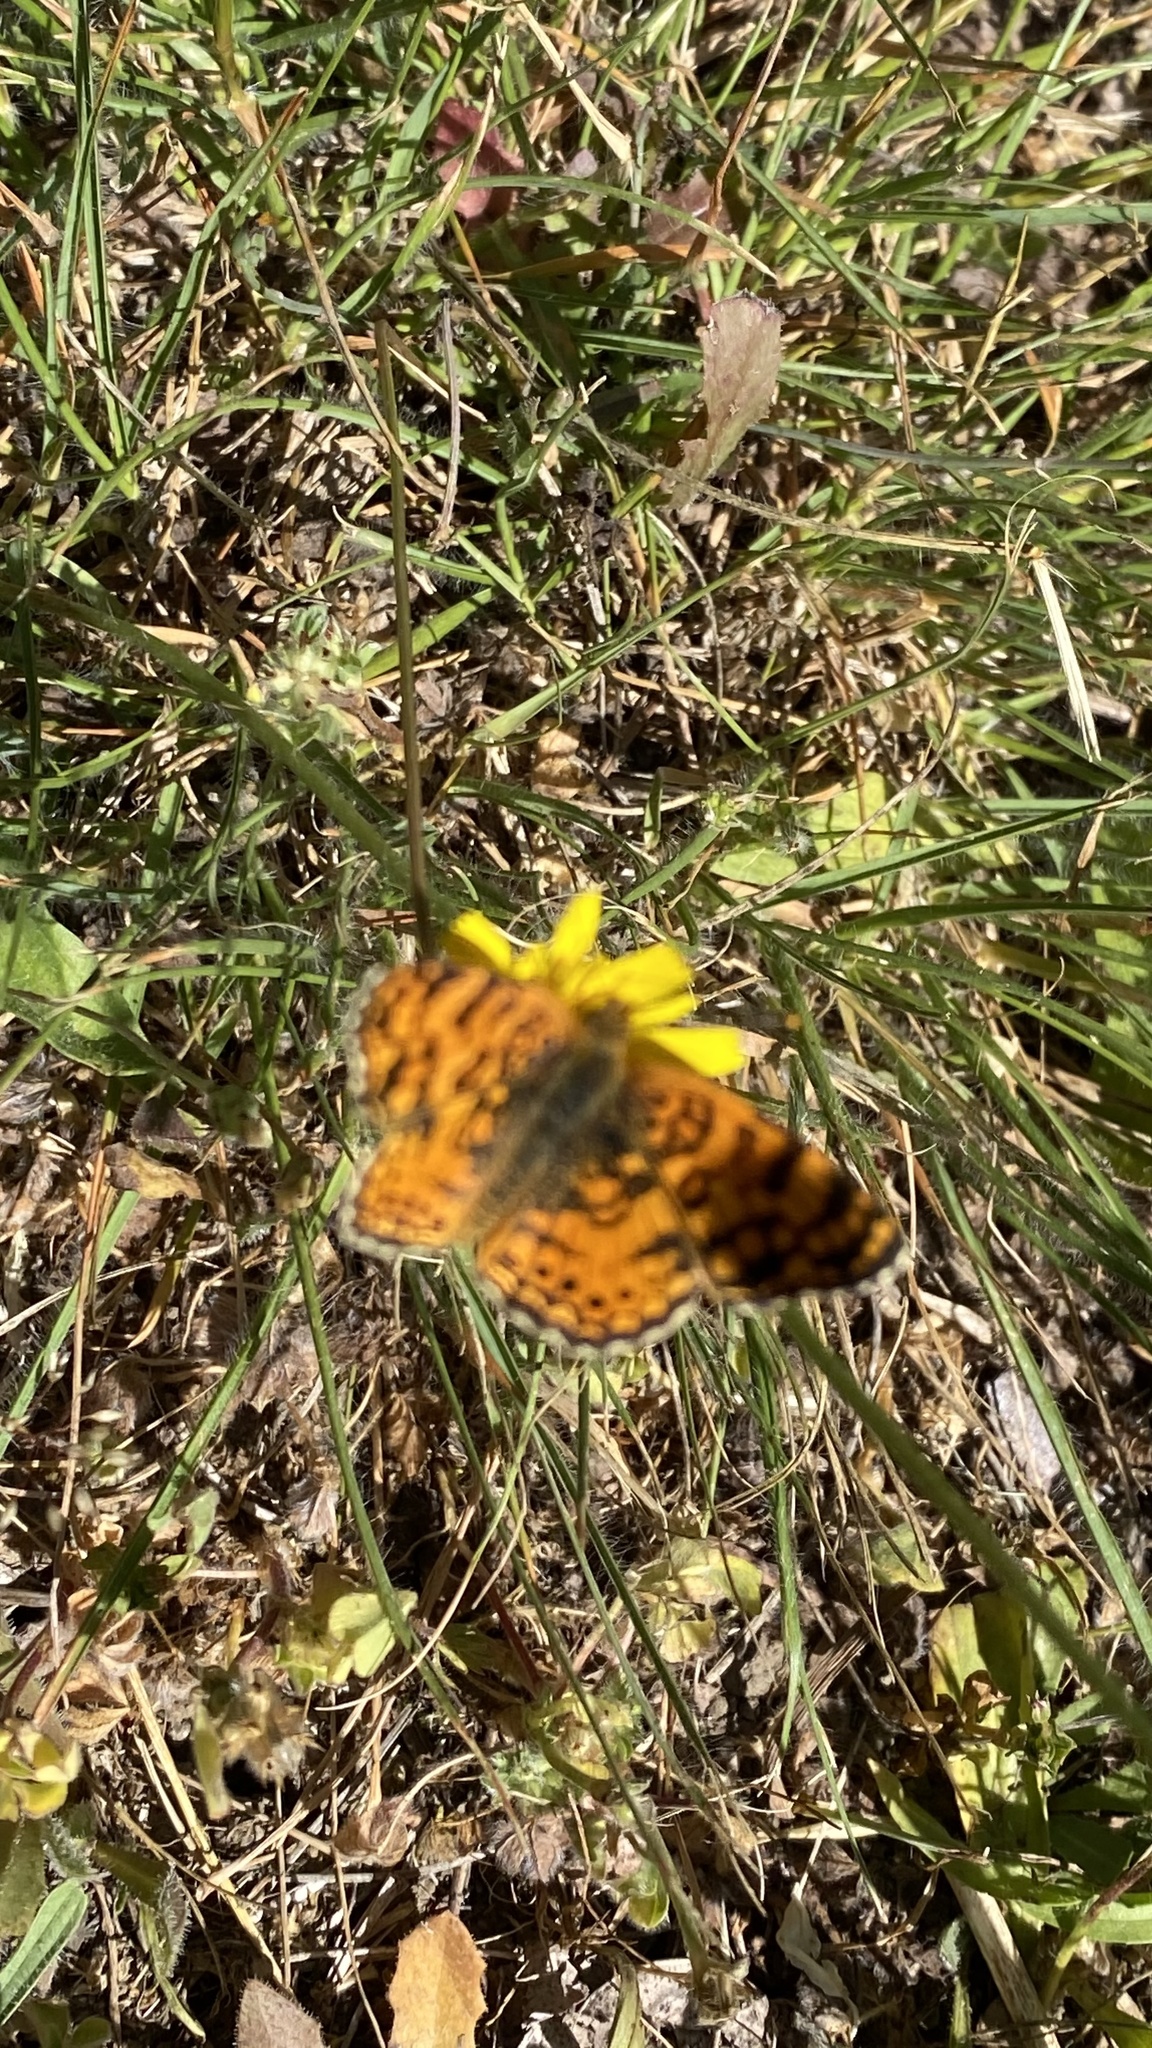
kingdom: Animalia
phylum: Arthropoda
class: Insecta
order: Lepidoptera
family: Nymphalidae
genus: Eresia
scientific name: Eresia aveyrona
